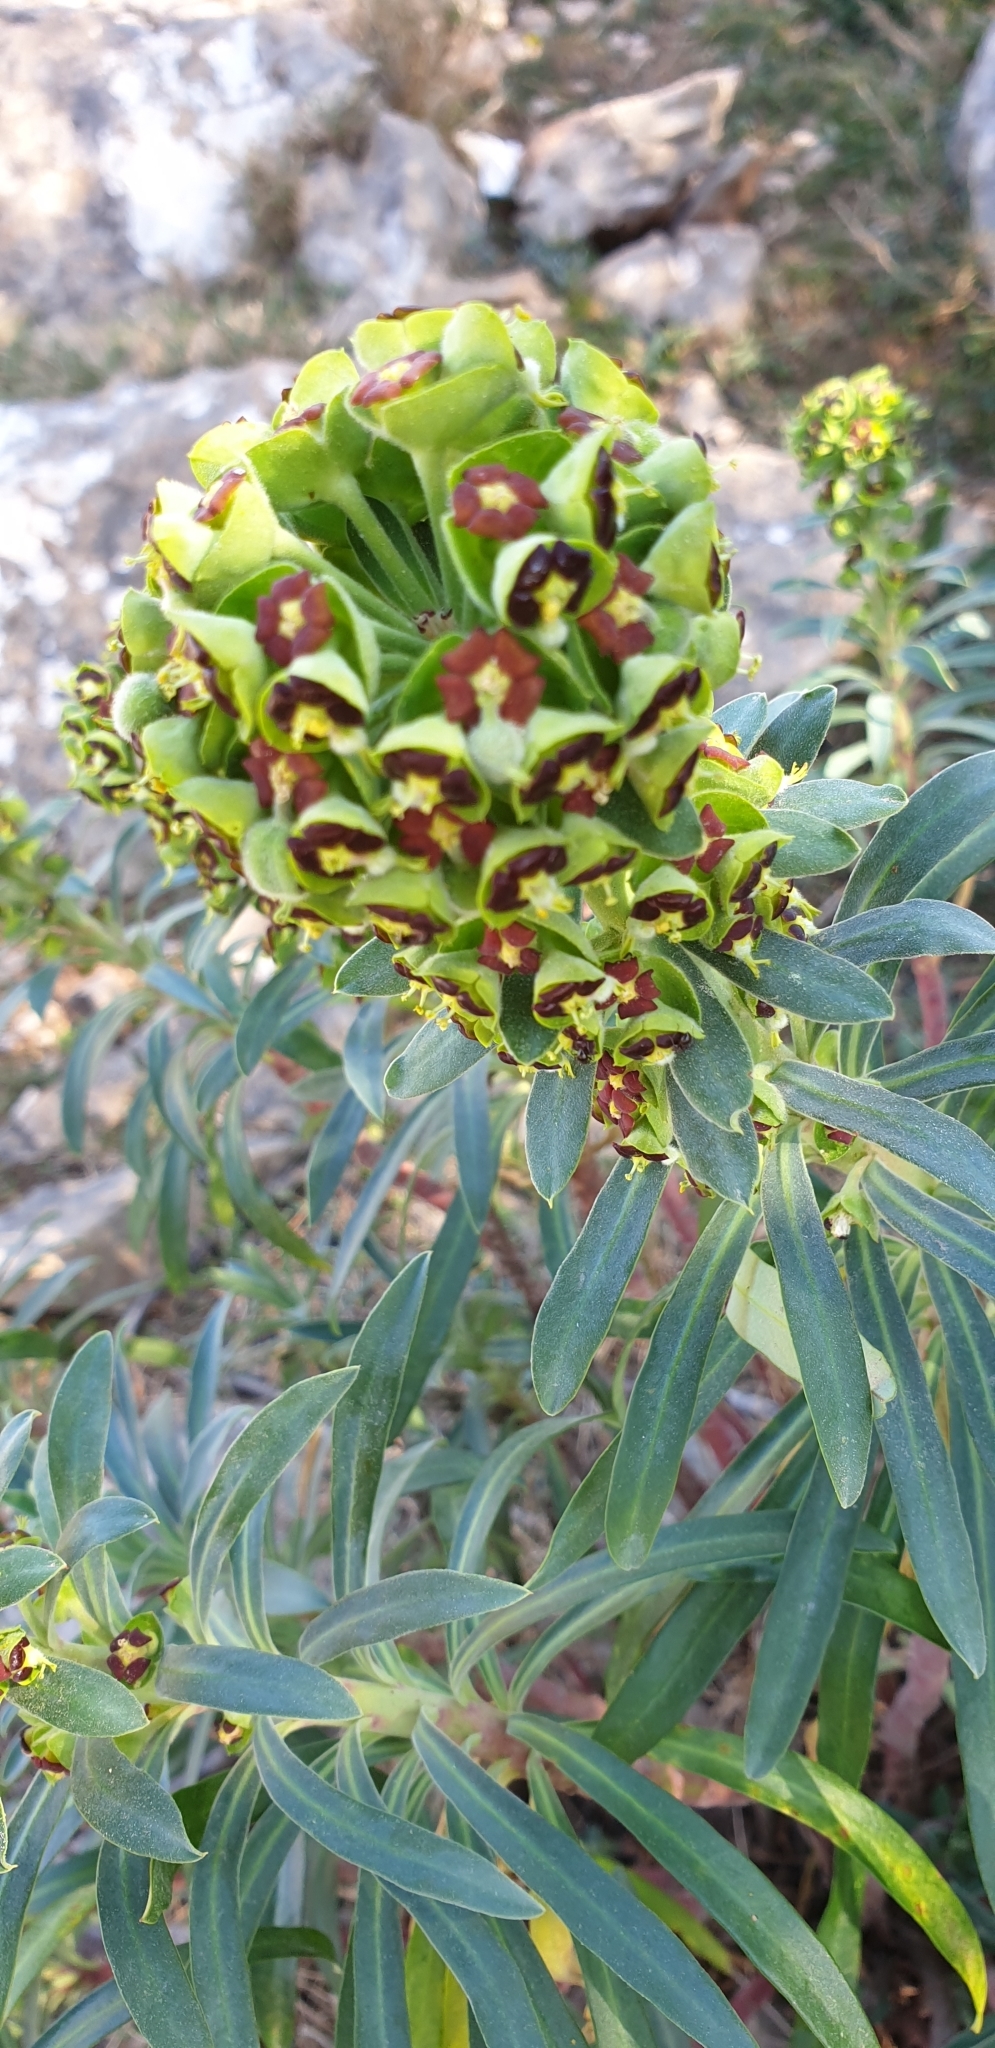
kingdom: Plantae
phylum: Tracheophyta
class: Magnoliopsida
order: Malpighiales
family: Euphorbiaceae
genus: Euphorbia
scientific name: Euphorbia characias
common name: Mediterranean spurge
